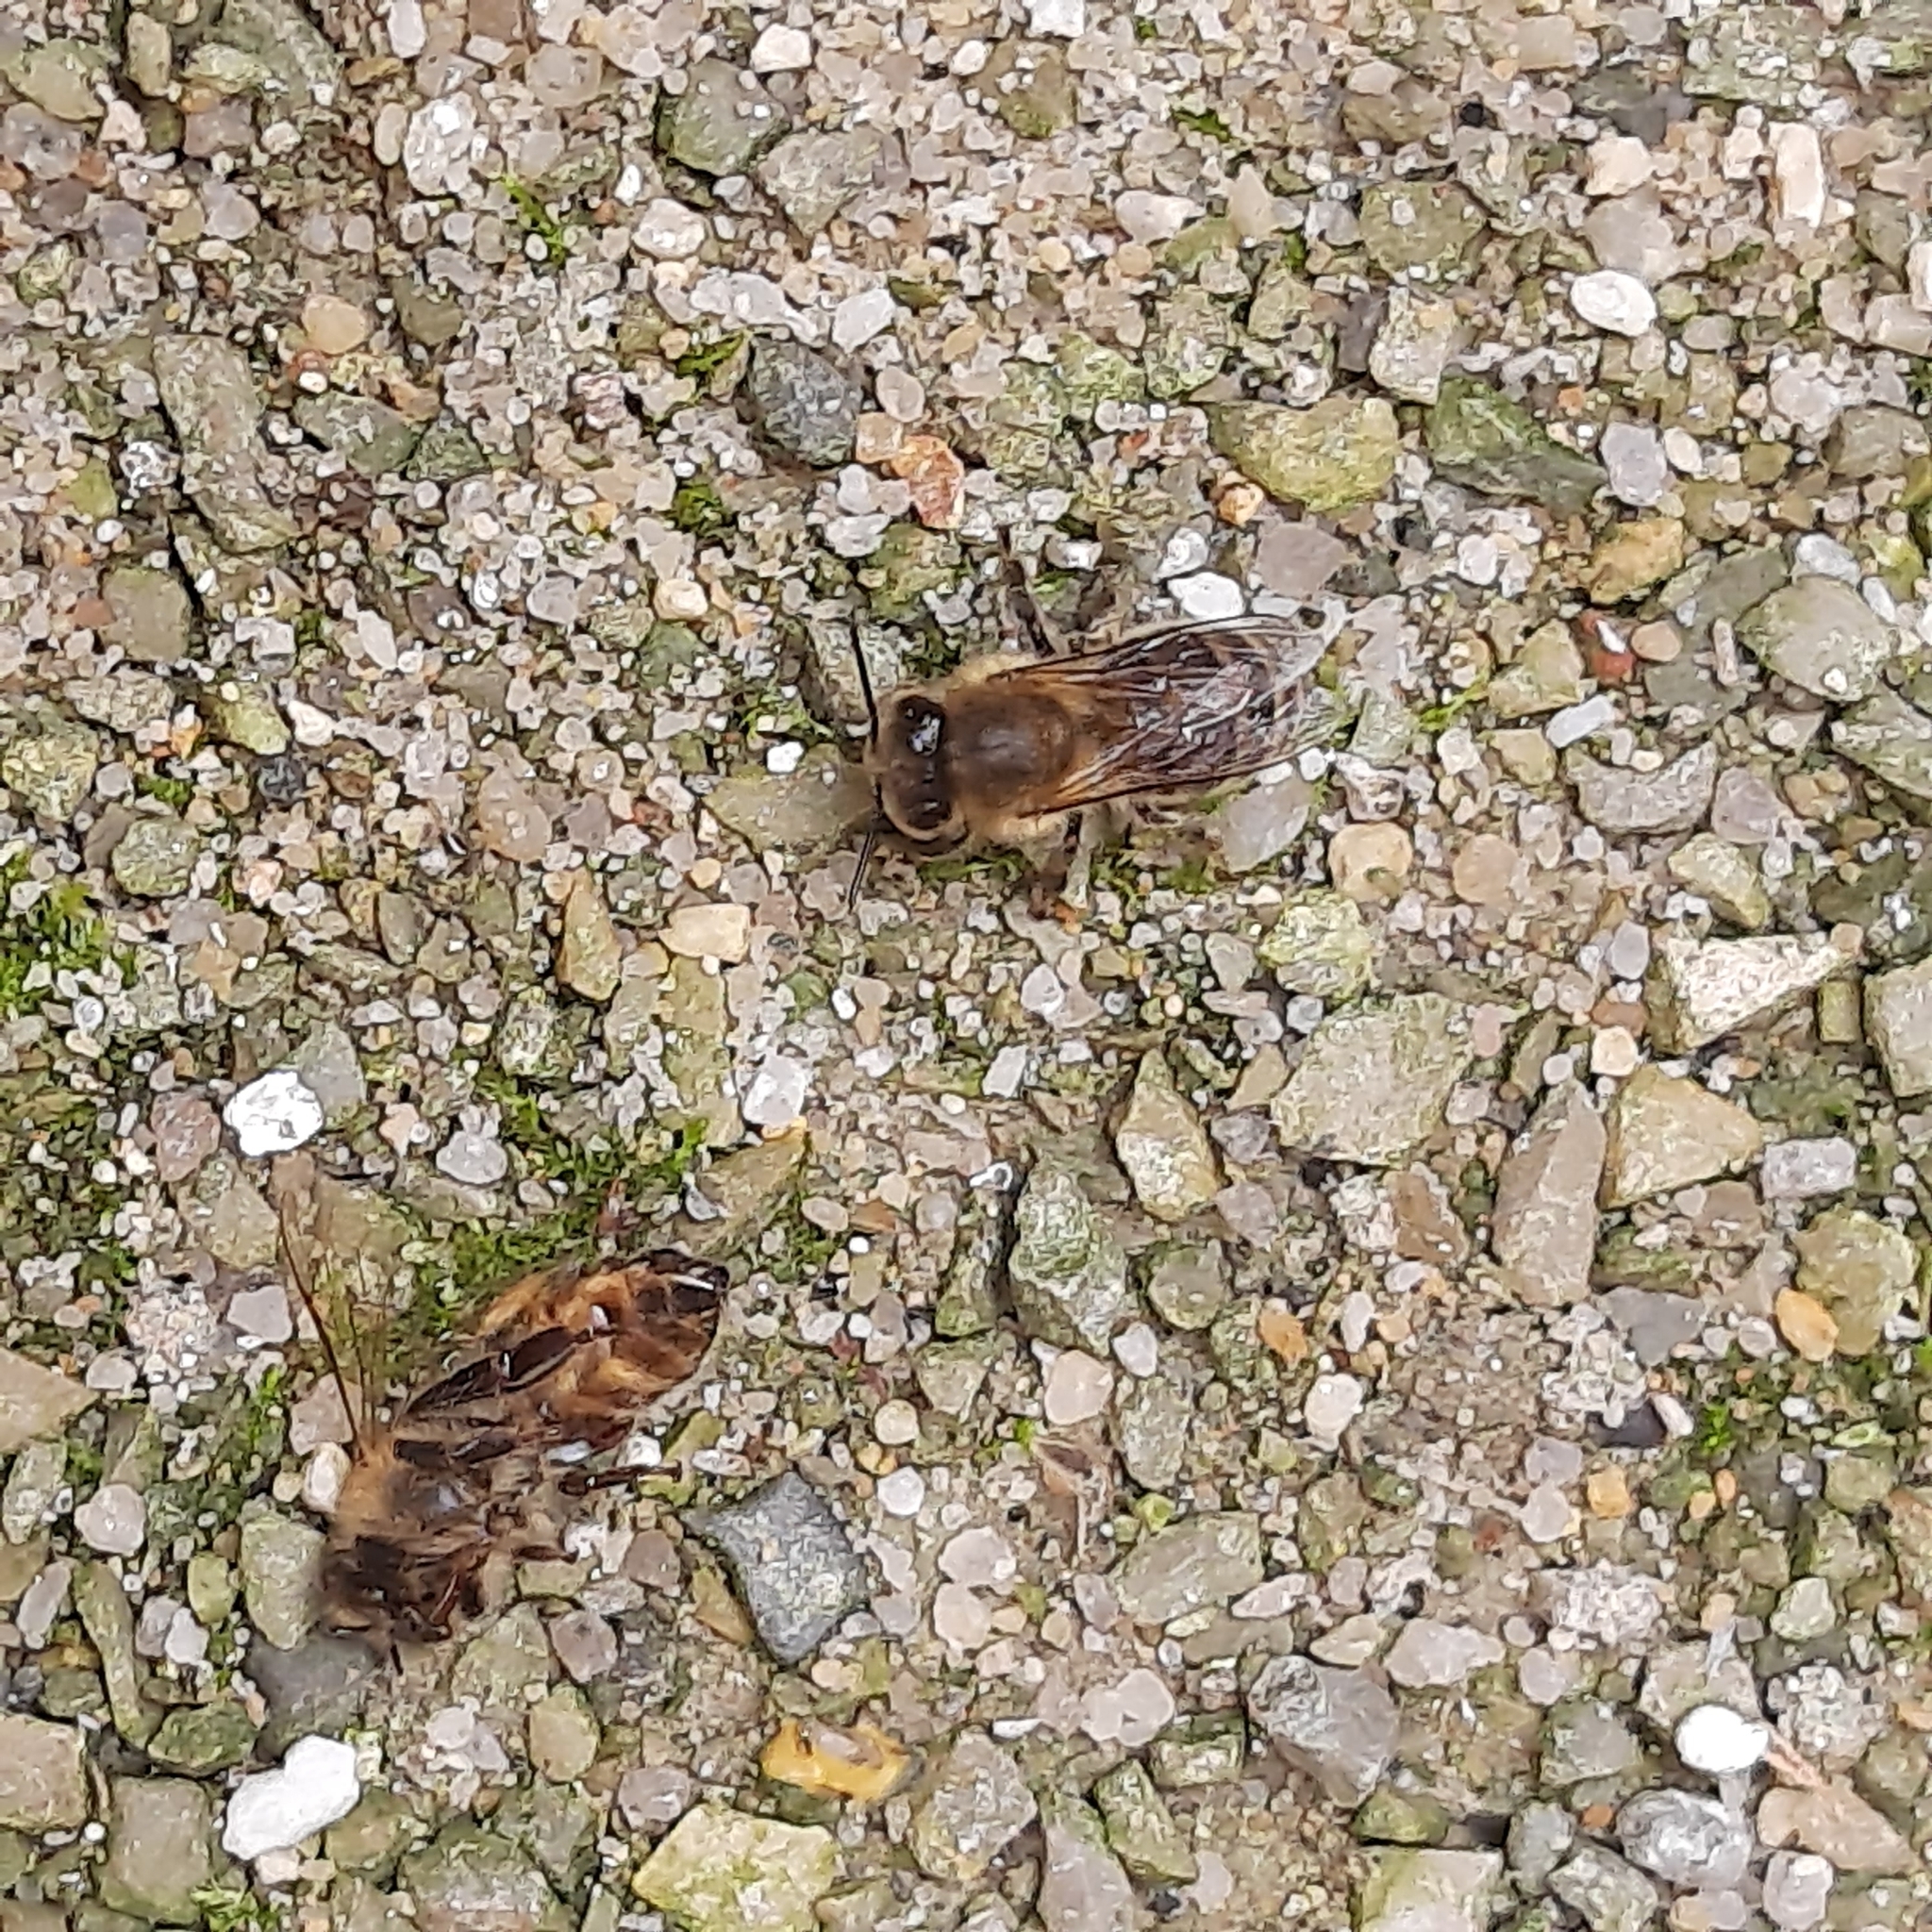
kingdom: Animalia
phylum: Arthropoda
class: Insecta
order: Hymenoptera
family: Apidae
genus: Apis
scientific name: Apis mellifera
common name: Honey bee
